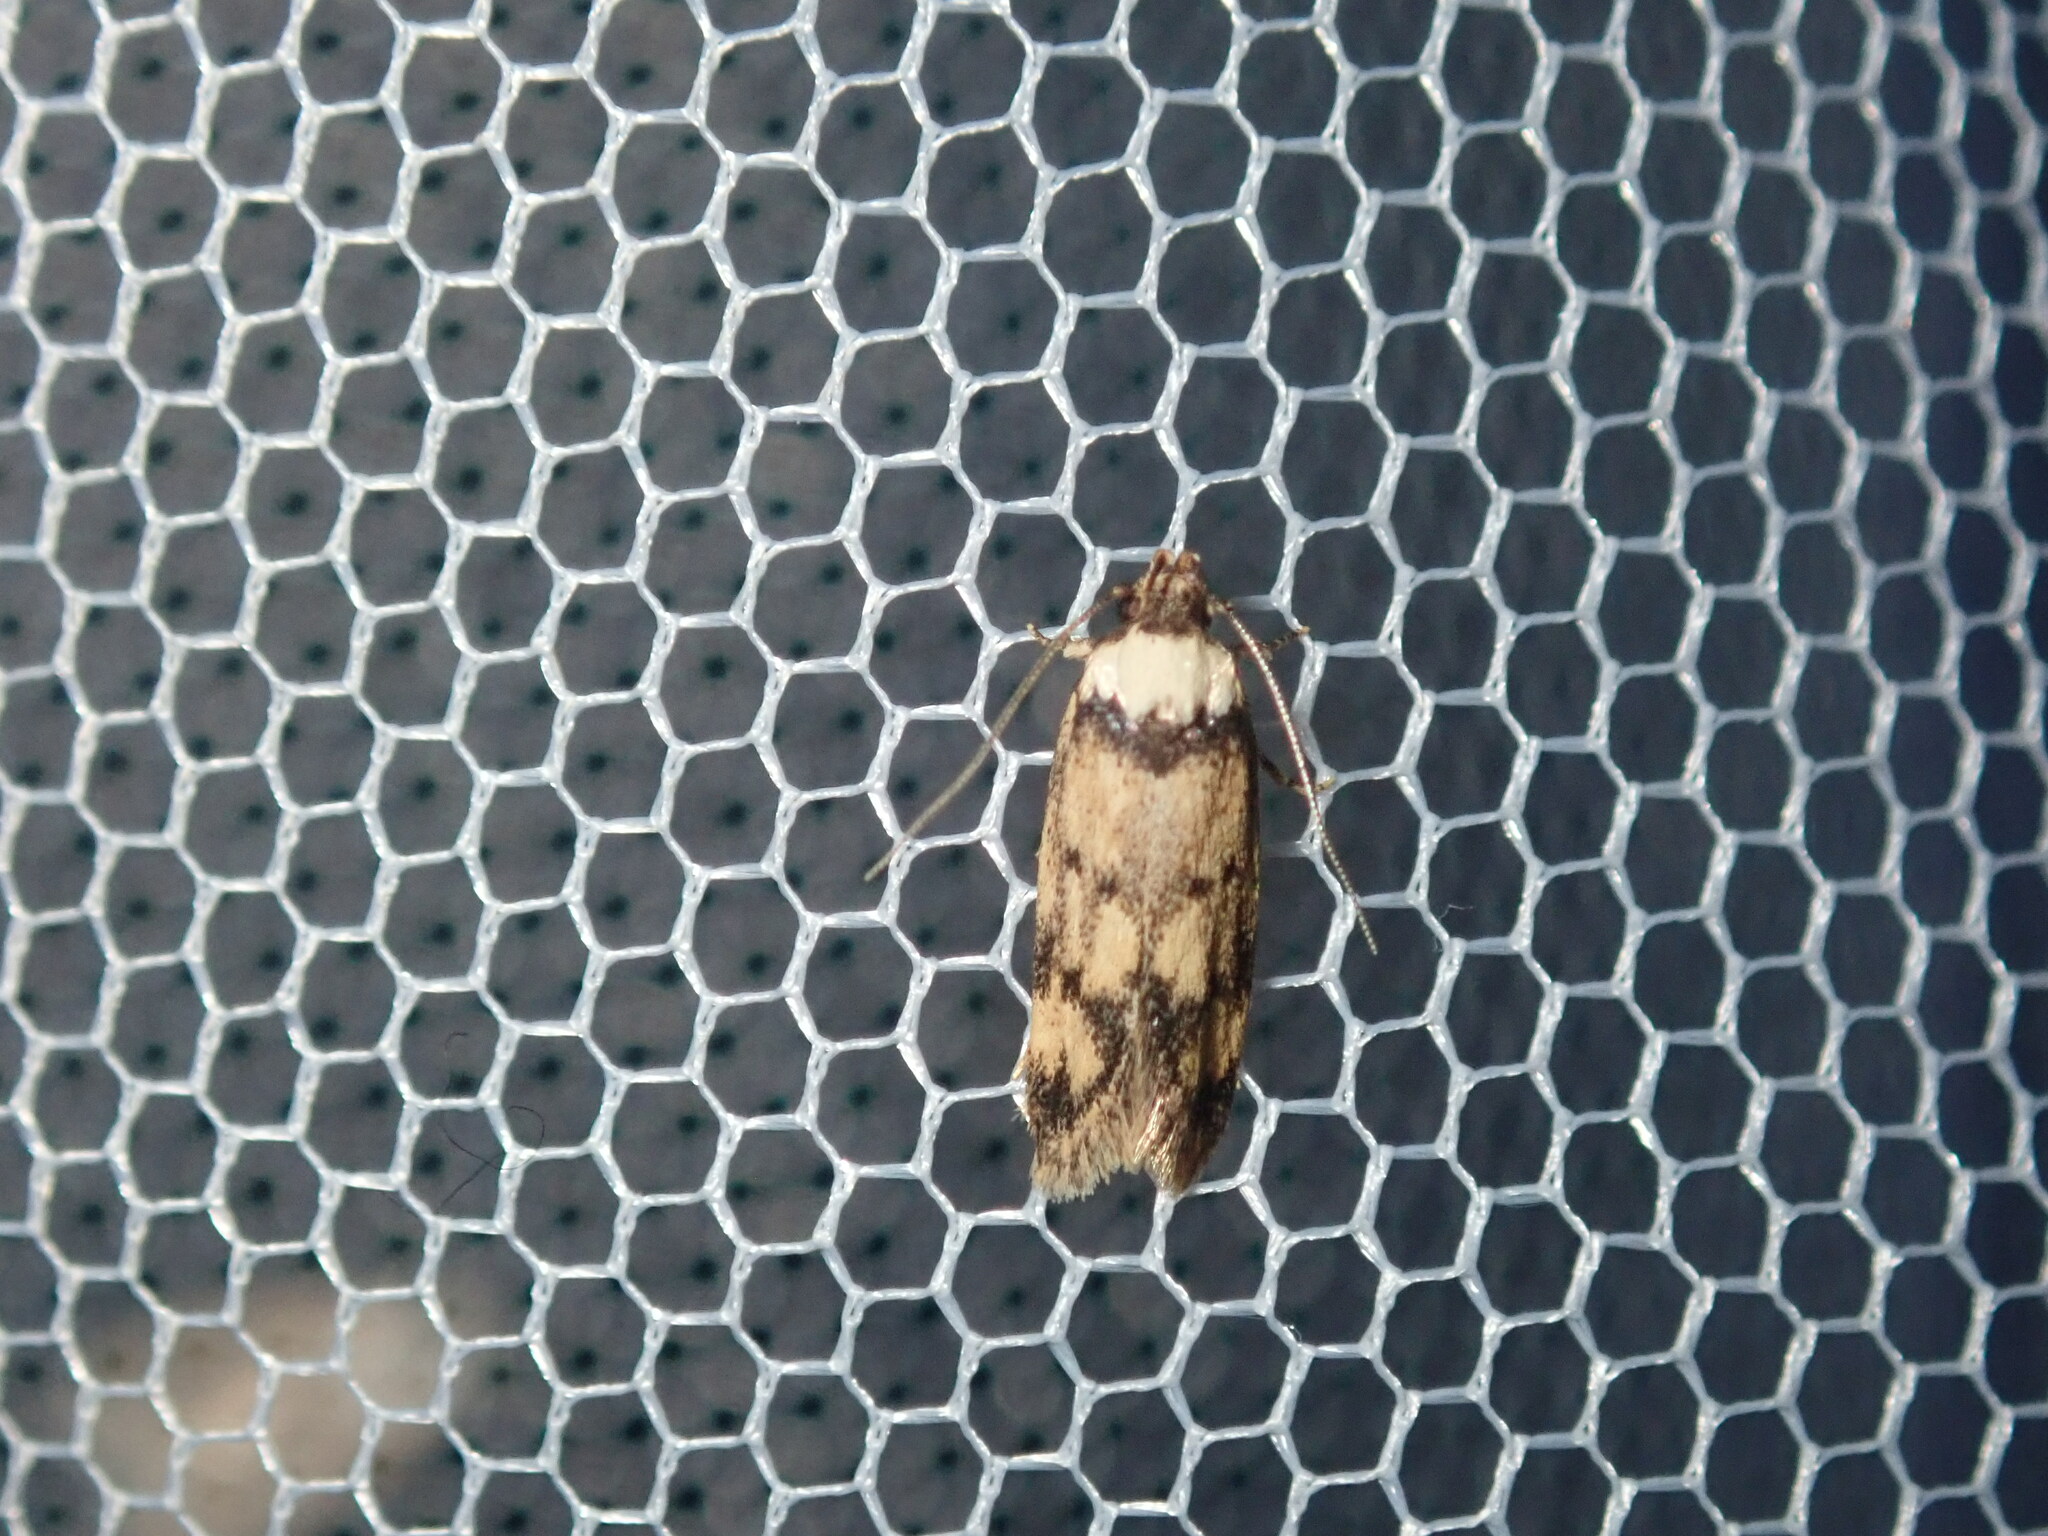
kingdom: Animalia
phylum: Arthropoda
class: Insecta
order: Lepidoptera
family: Oecophoridae
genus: Sphyrelata
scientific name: Sphyrelata
